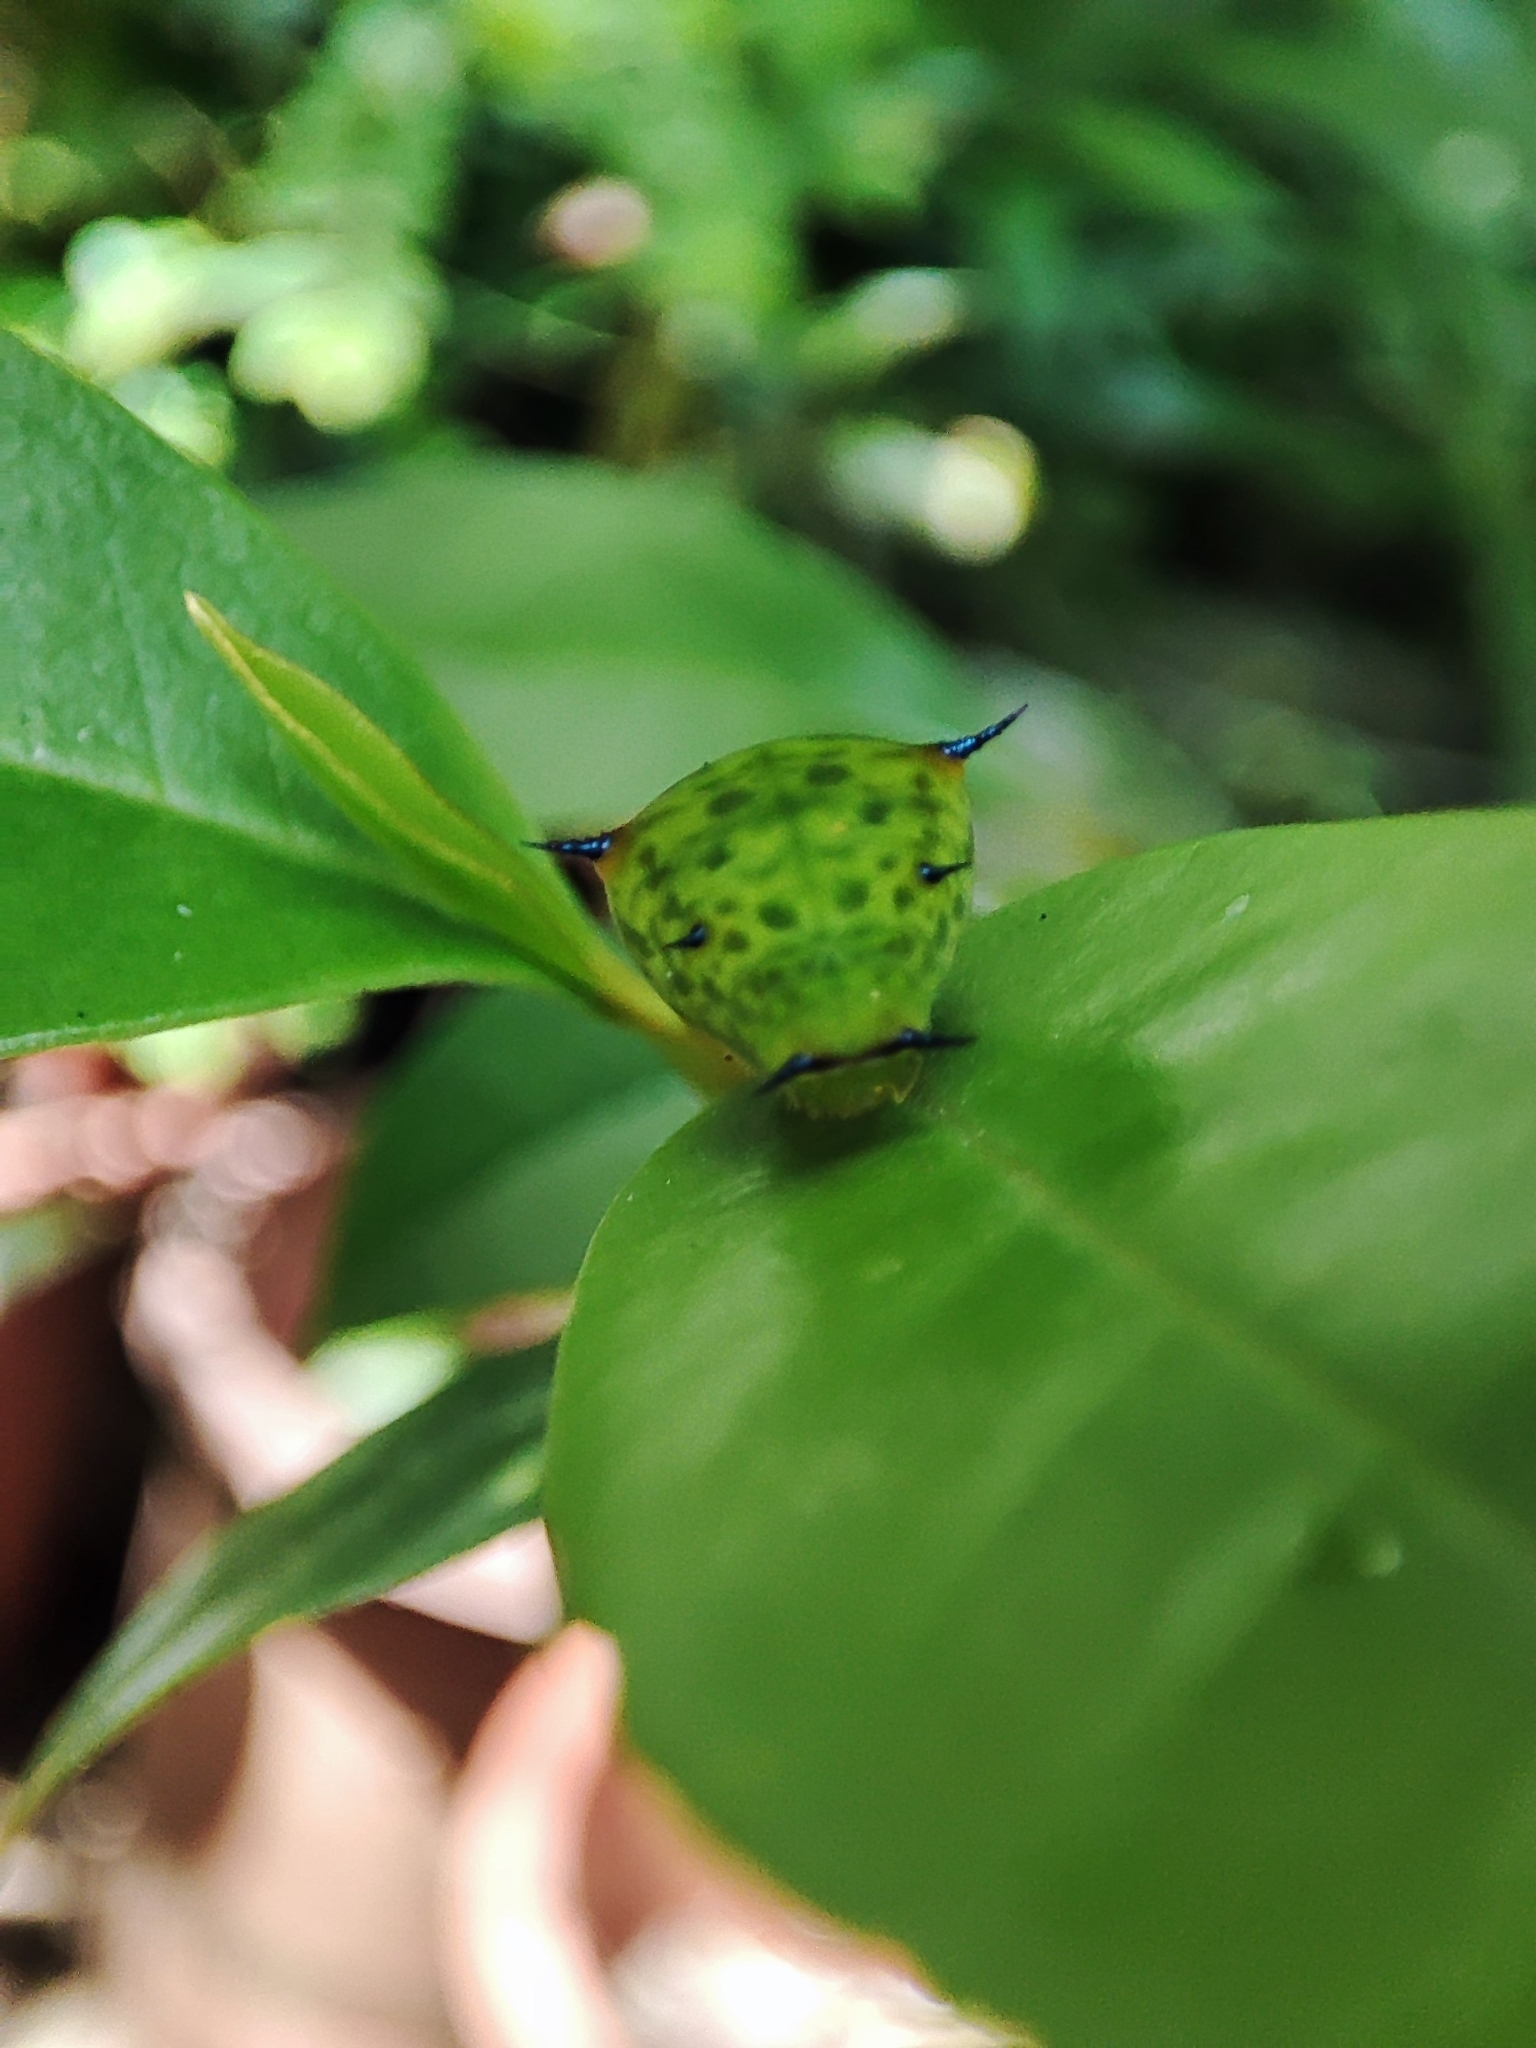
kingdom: Animalia
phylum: Arthropoda
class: Insecta
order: Lepidoptera
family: Papilionidae
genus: Graphium
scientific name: Graphium agamemnon
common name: Tailed jay
